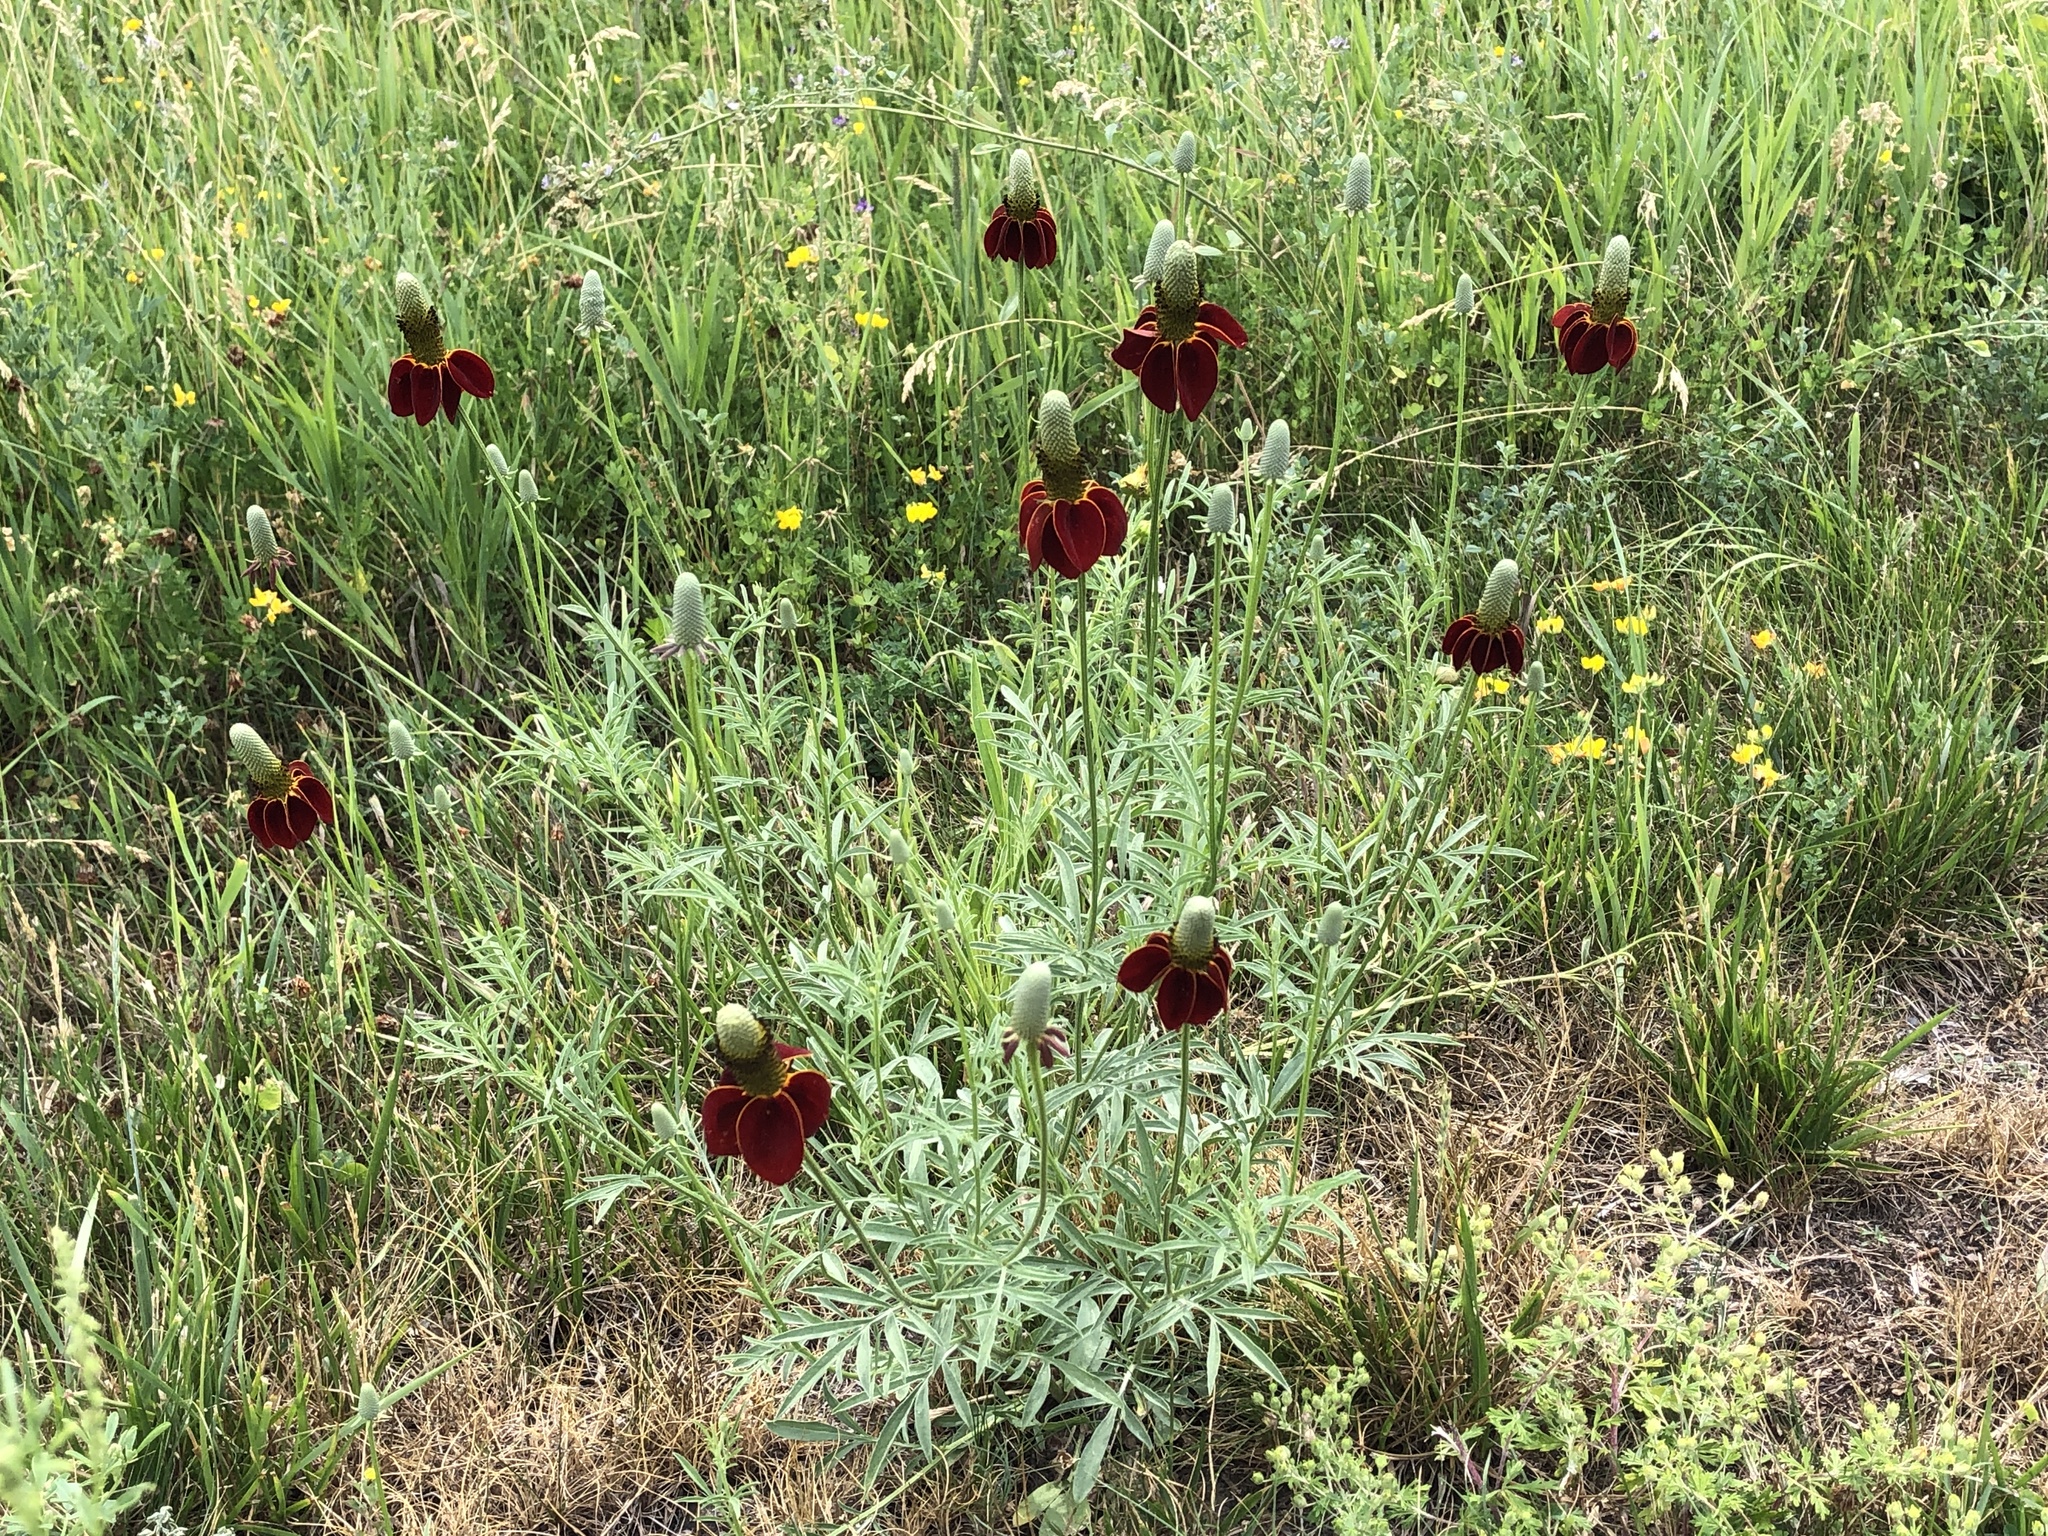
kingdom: Plantae
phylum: Tracheophyta
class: Magnoliopsida
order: Asterales
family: Asteraceae
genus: Ratibida
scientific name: Ratibida columnifera
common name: Prairie coneflower
